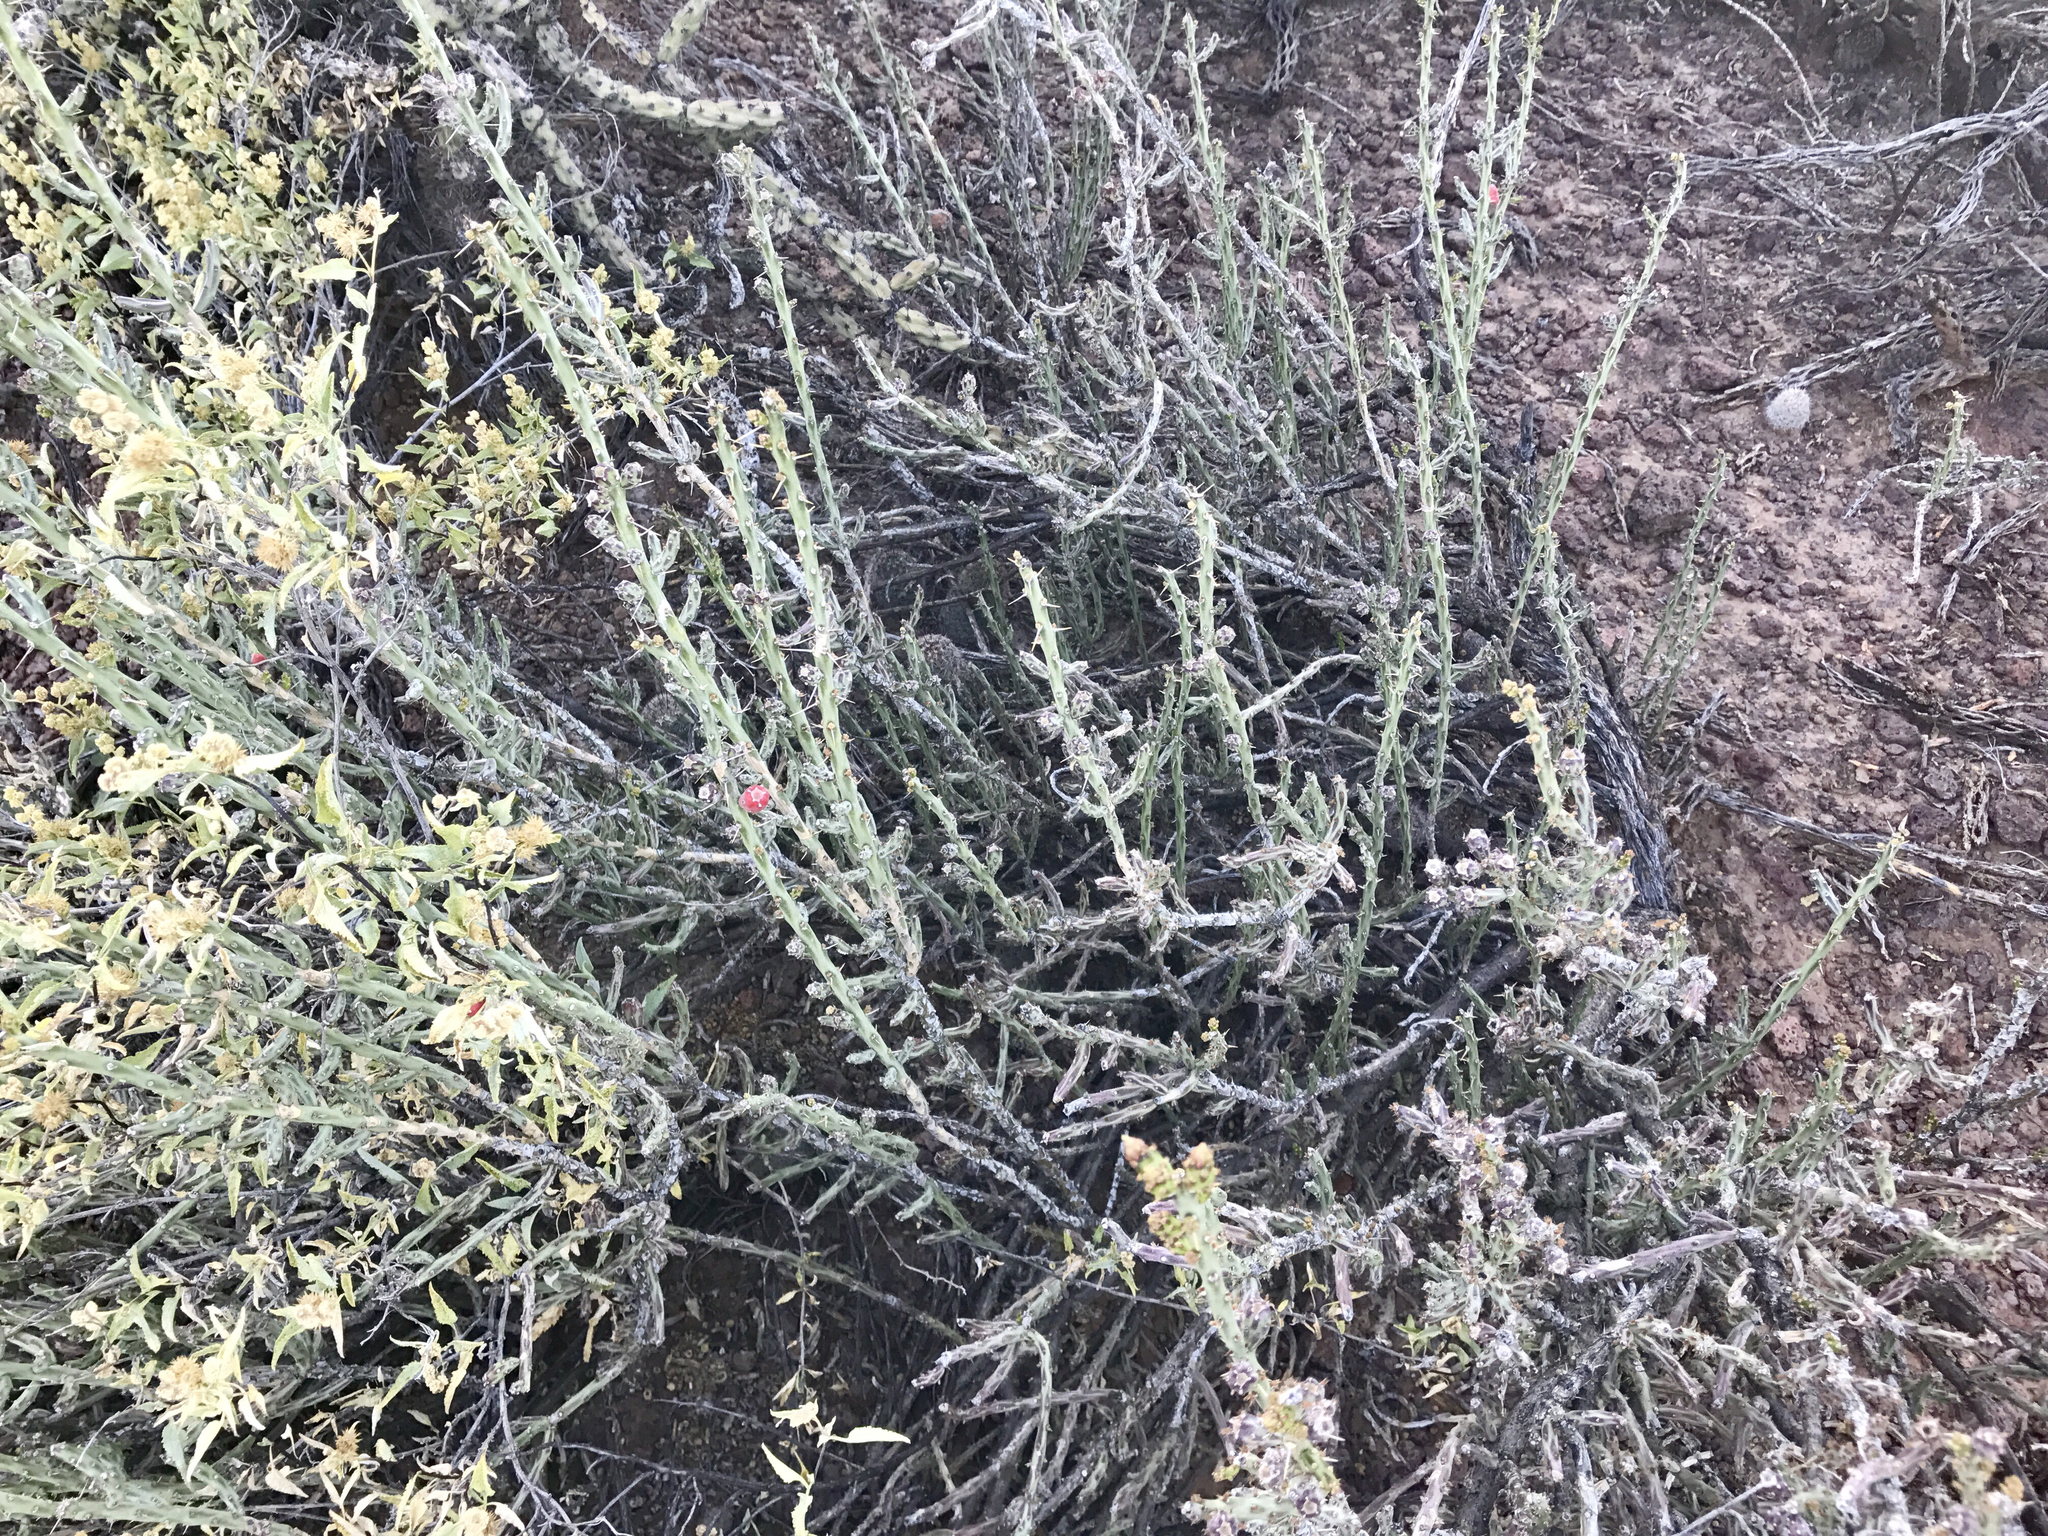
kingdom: Plantae
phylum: Tracheophyta
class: Magnoliopsida
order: Caryophyllales
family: Cactaceae
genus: Cylindropuntia
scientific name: Cylindropuntia leptocaulis
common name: Christmas cactus
